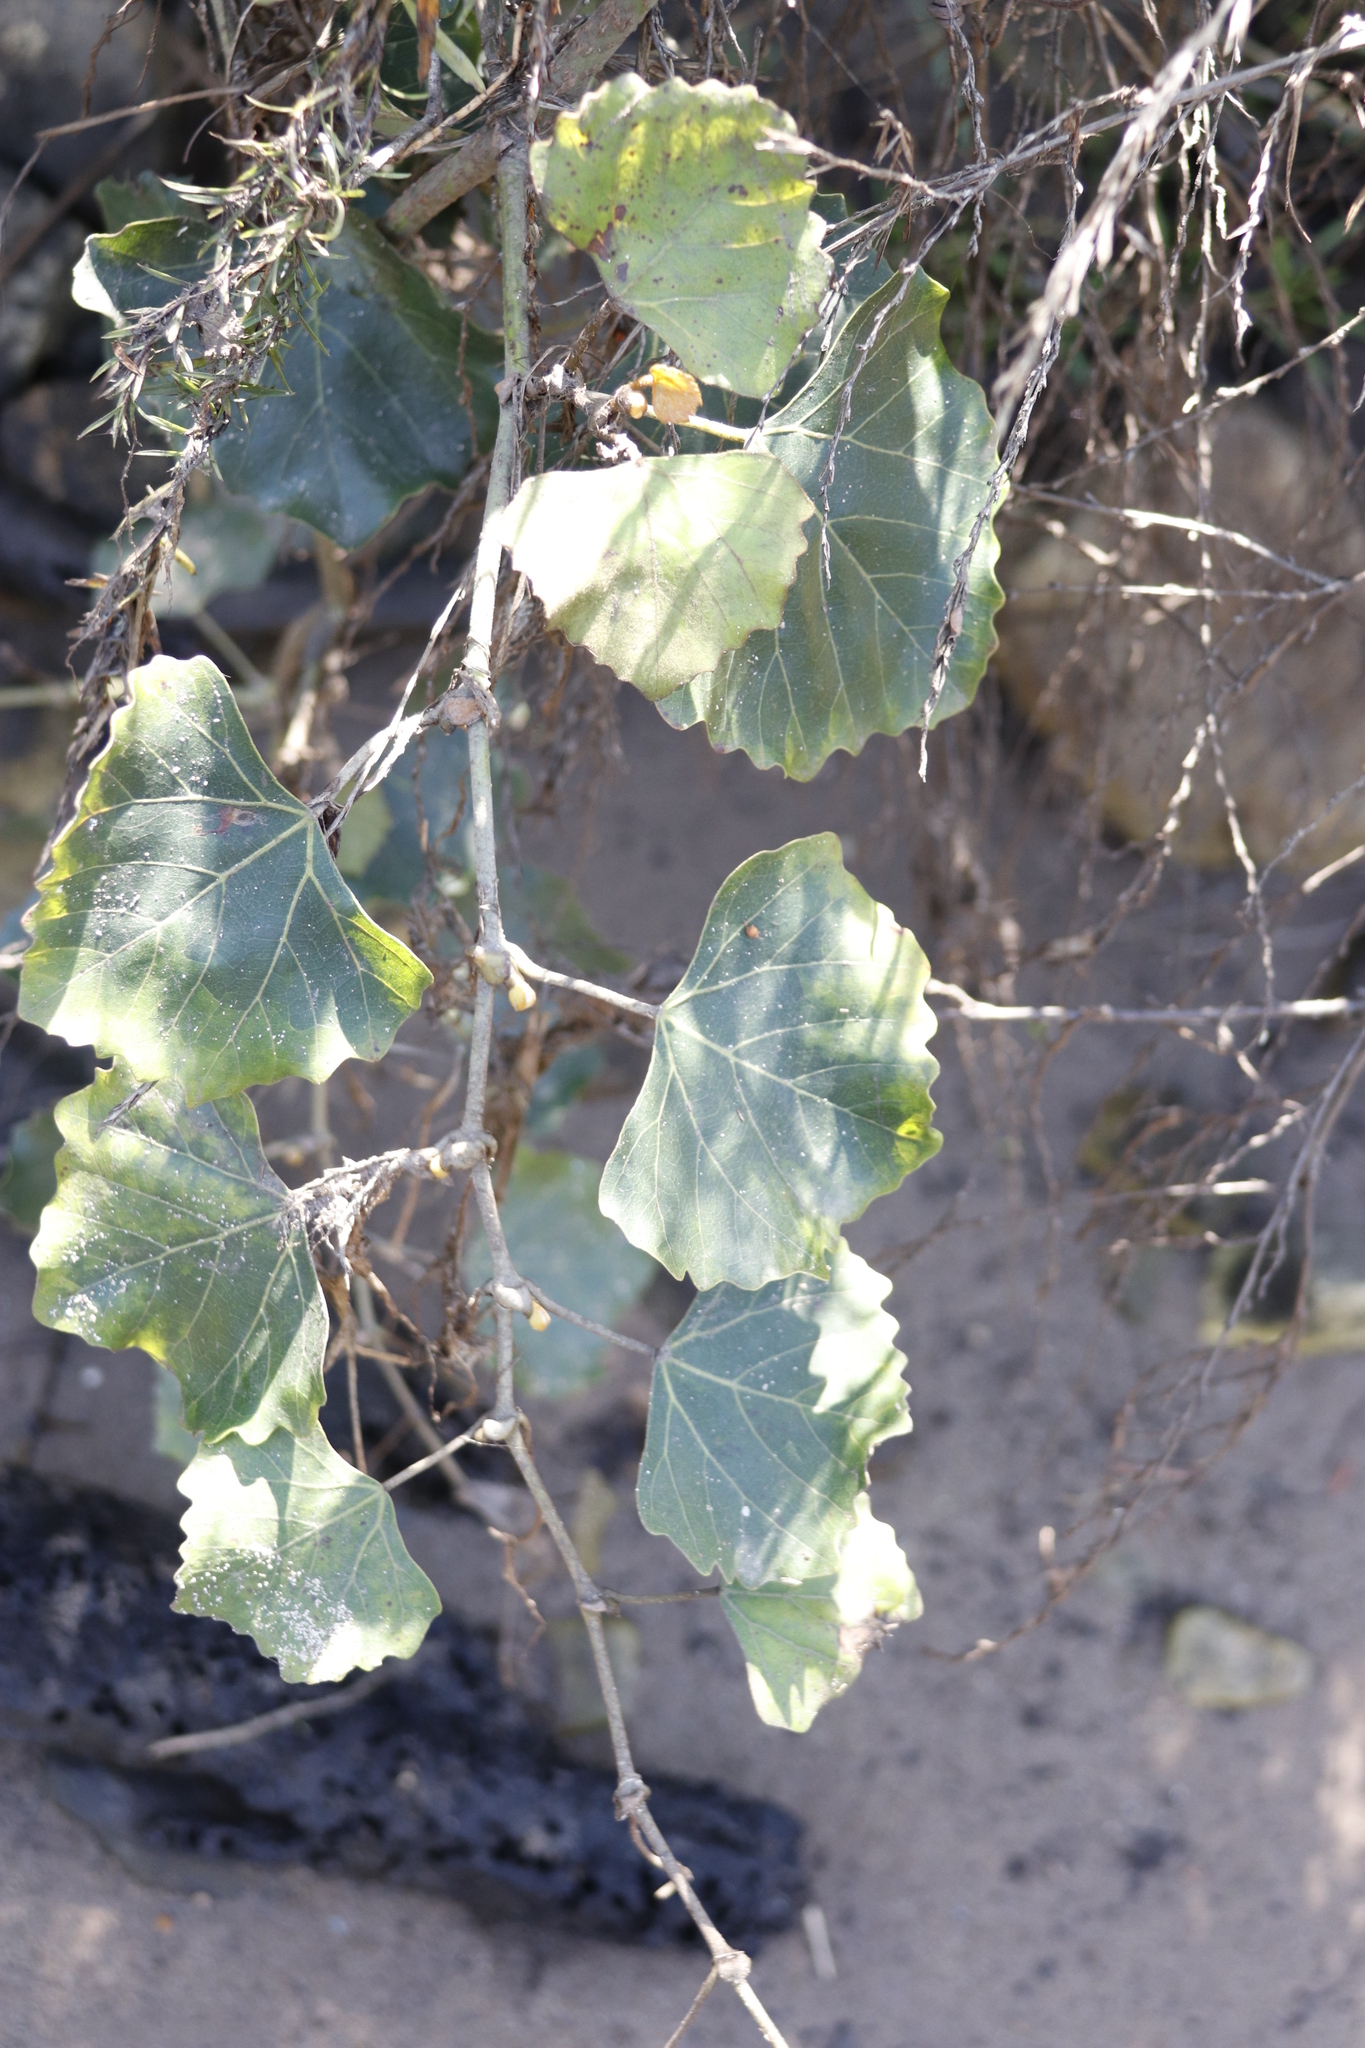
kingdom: Plantae
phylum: Tracheophyta
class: Magnoliopsida
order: Vitales
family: Vitaceae
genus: Rhoicissus
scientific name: Rhoicissus tomentosa
